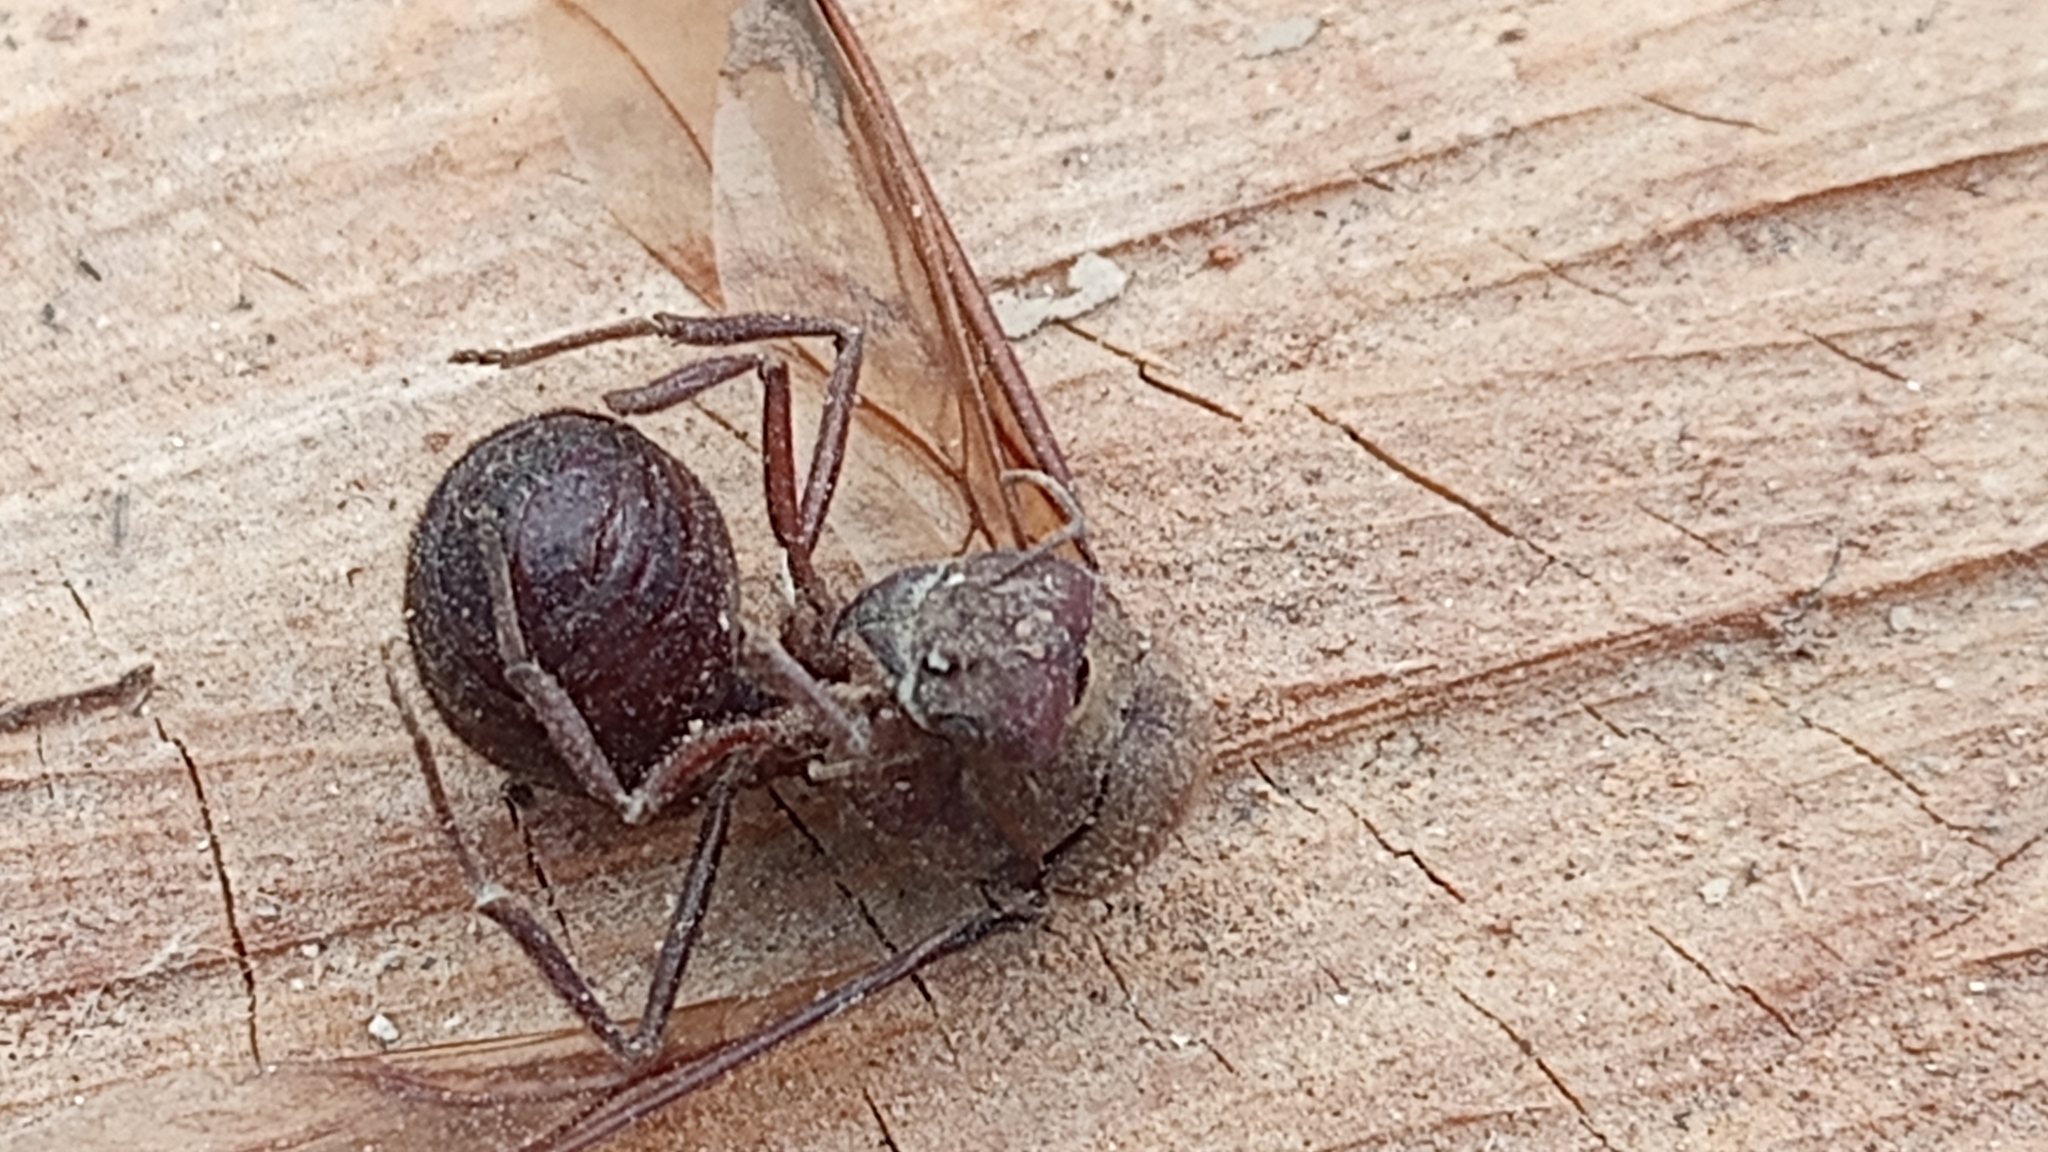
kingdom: Animalia
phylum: Arthropoda
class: Insecta
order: Hymenoptera
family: Formicidae
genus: Atta
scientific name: Atta mexicana
